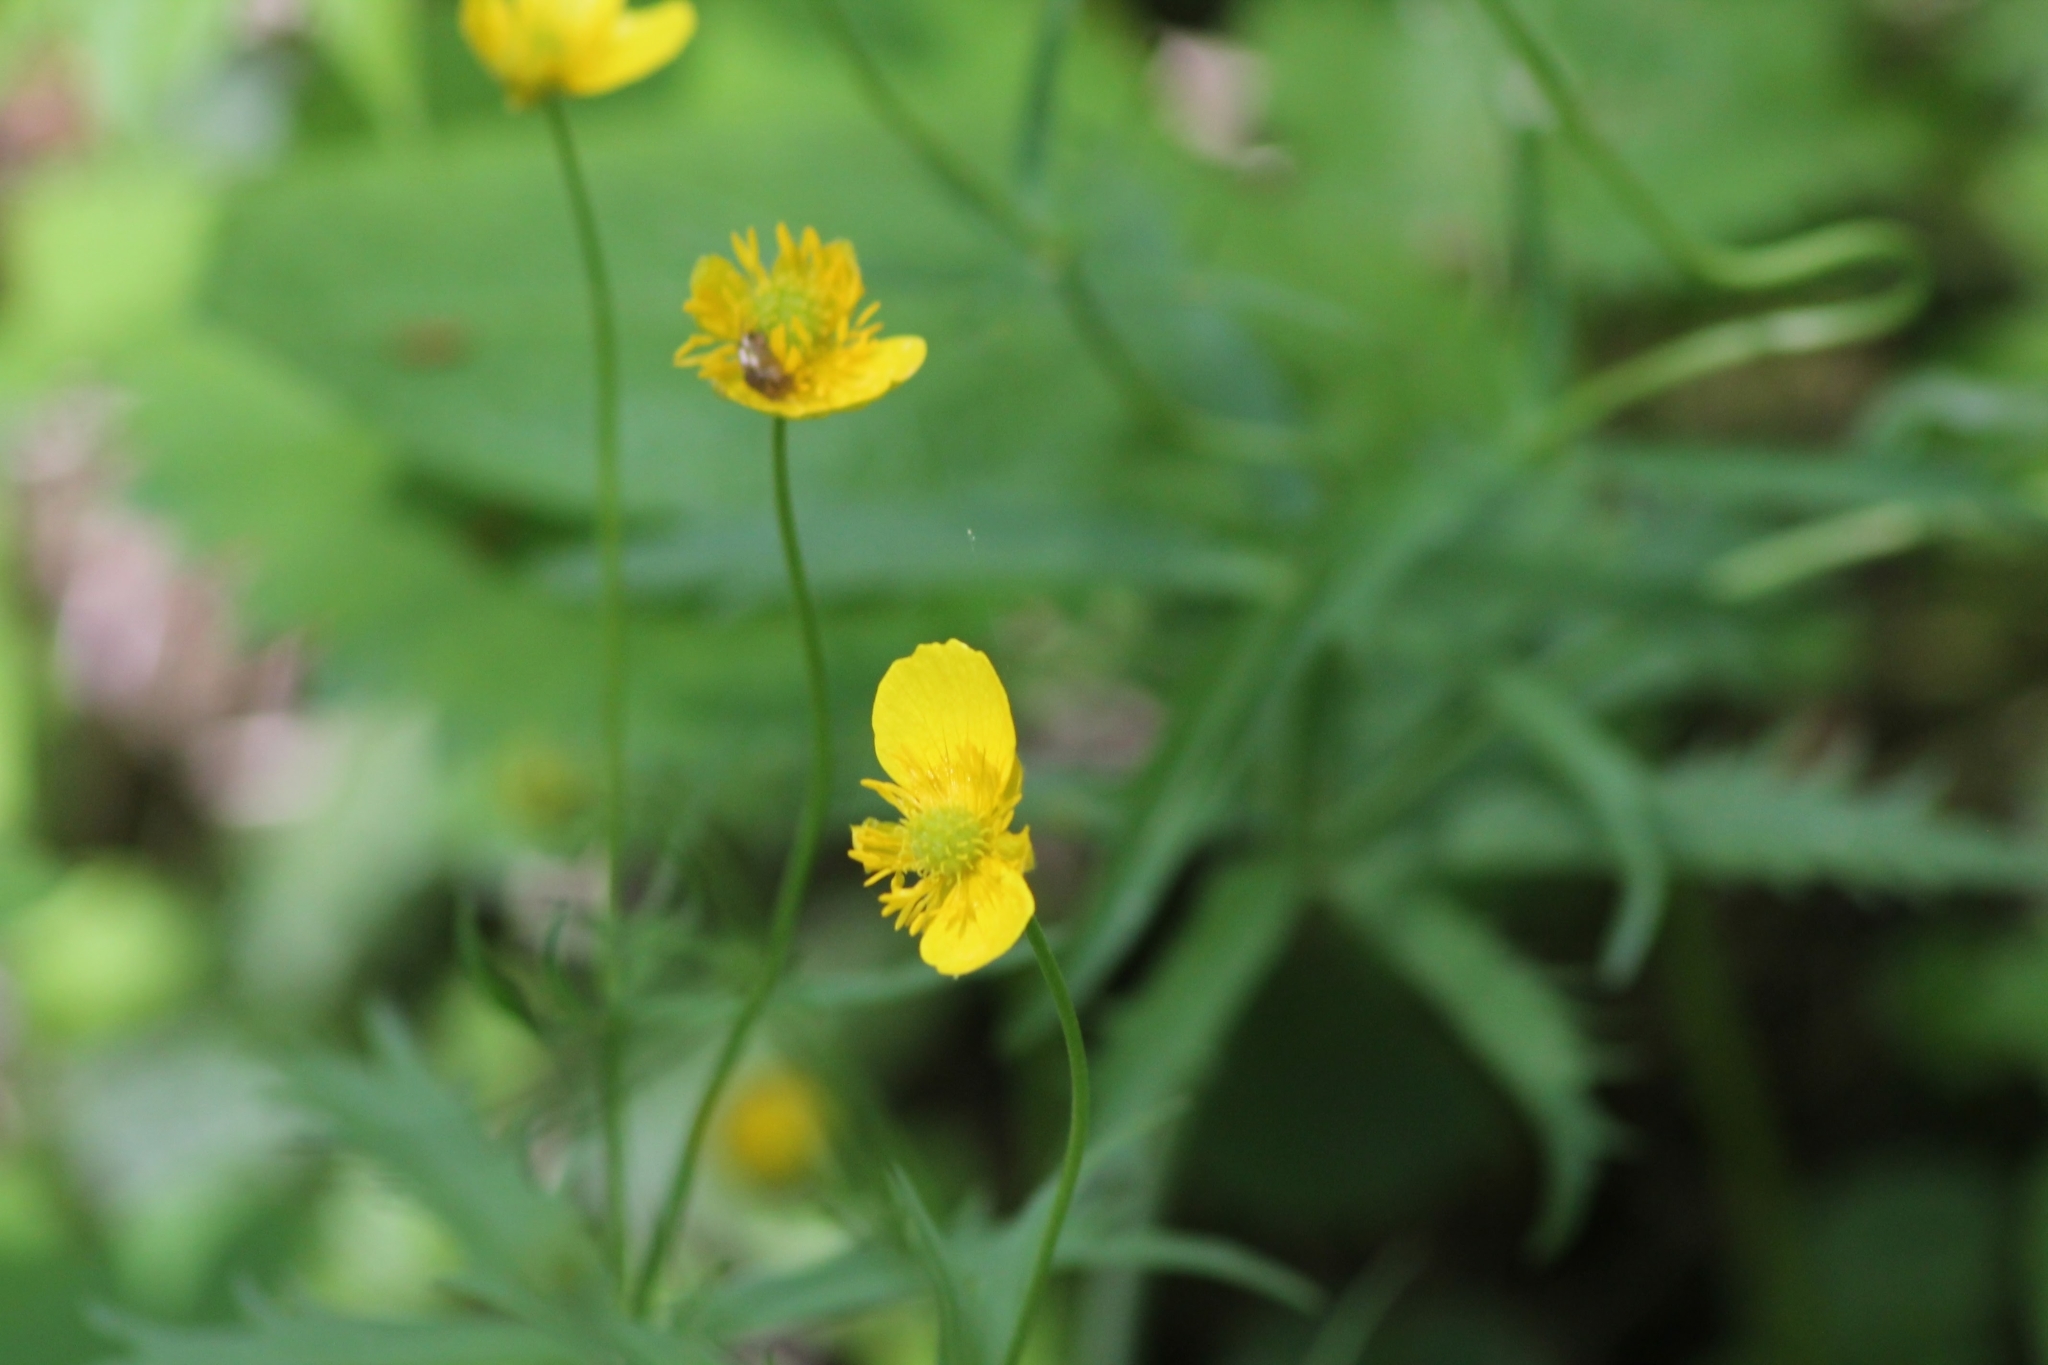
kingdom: Plantae
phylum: Tracheophyta
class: Magnoliopsida
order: Ranunculales
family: Ranunculaceae
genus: Ranunculus
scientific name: Ranunculus cassubicus
